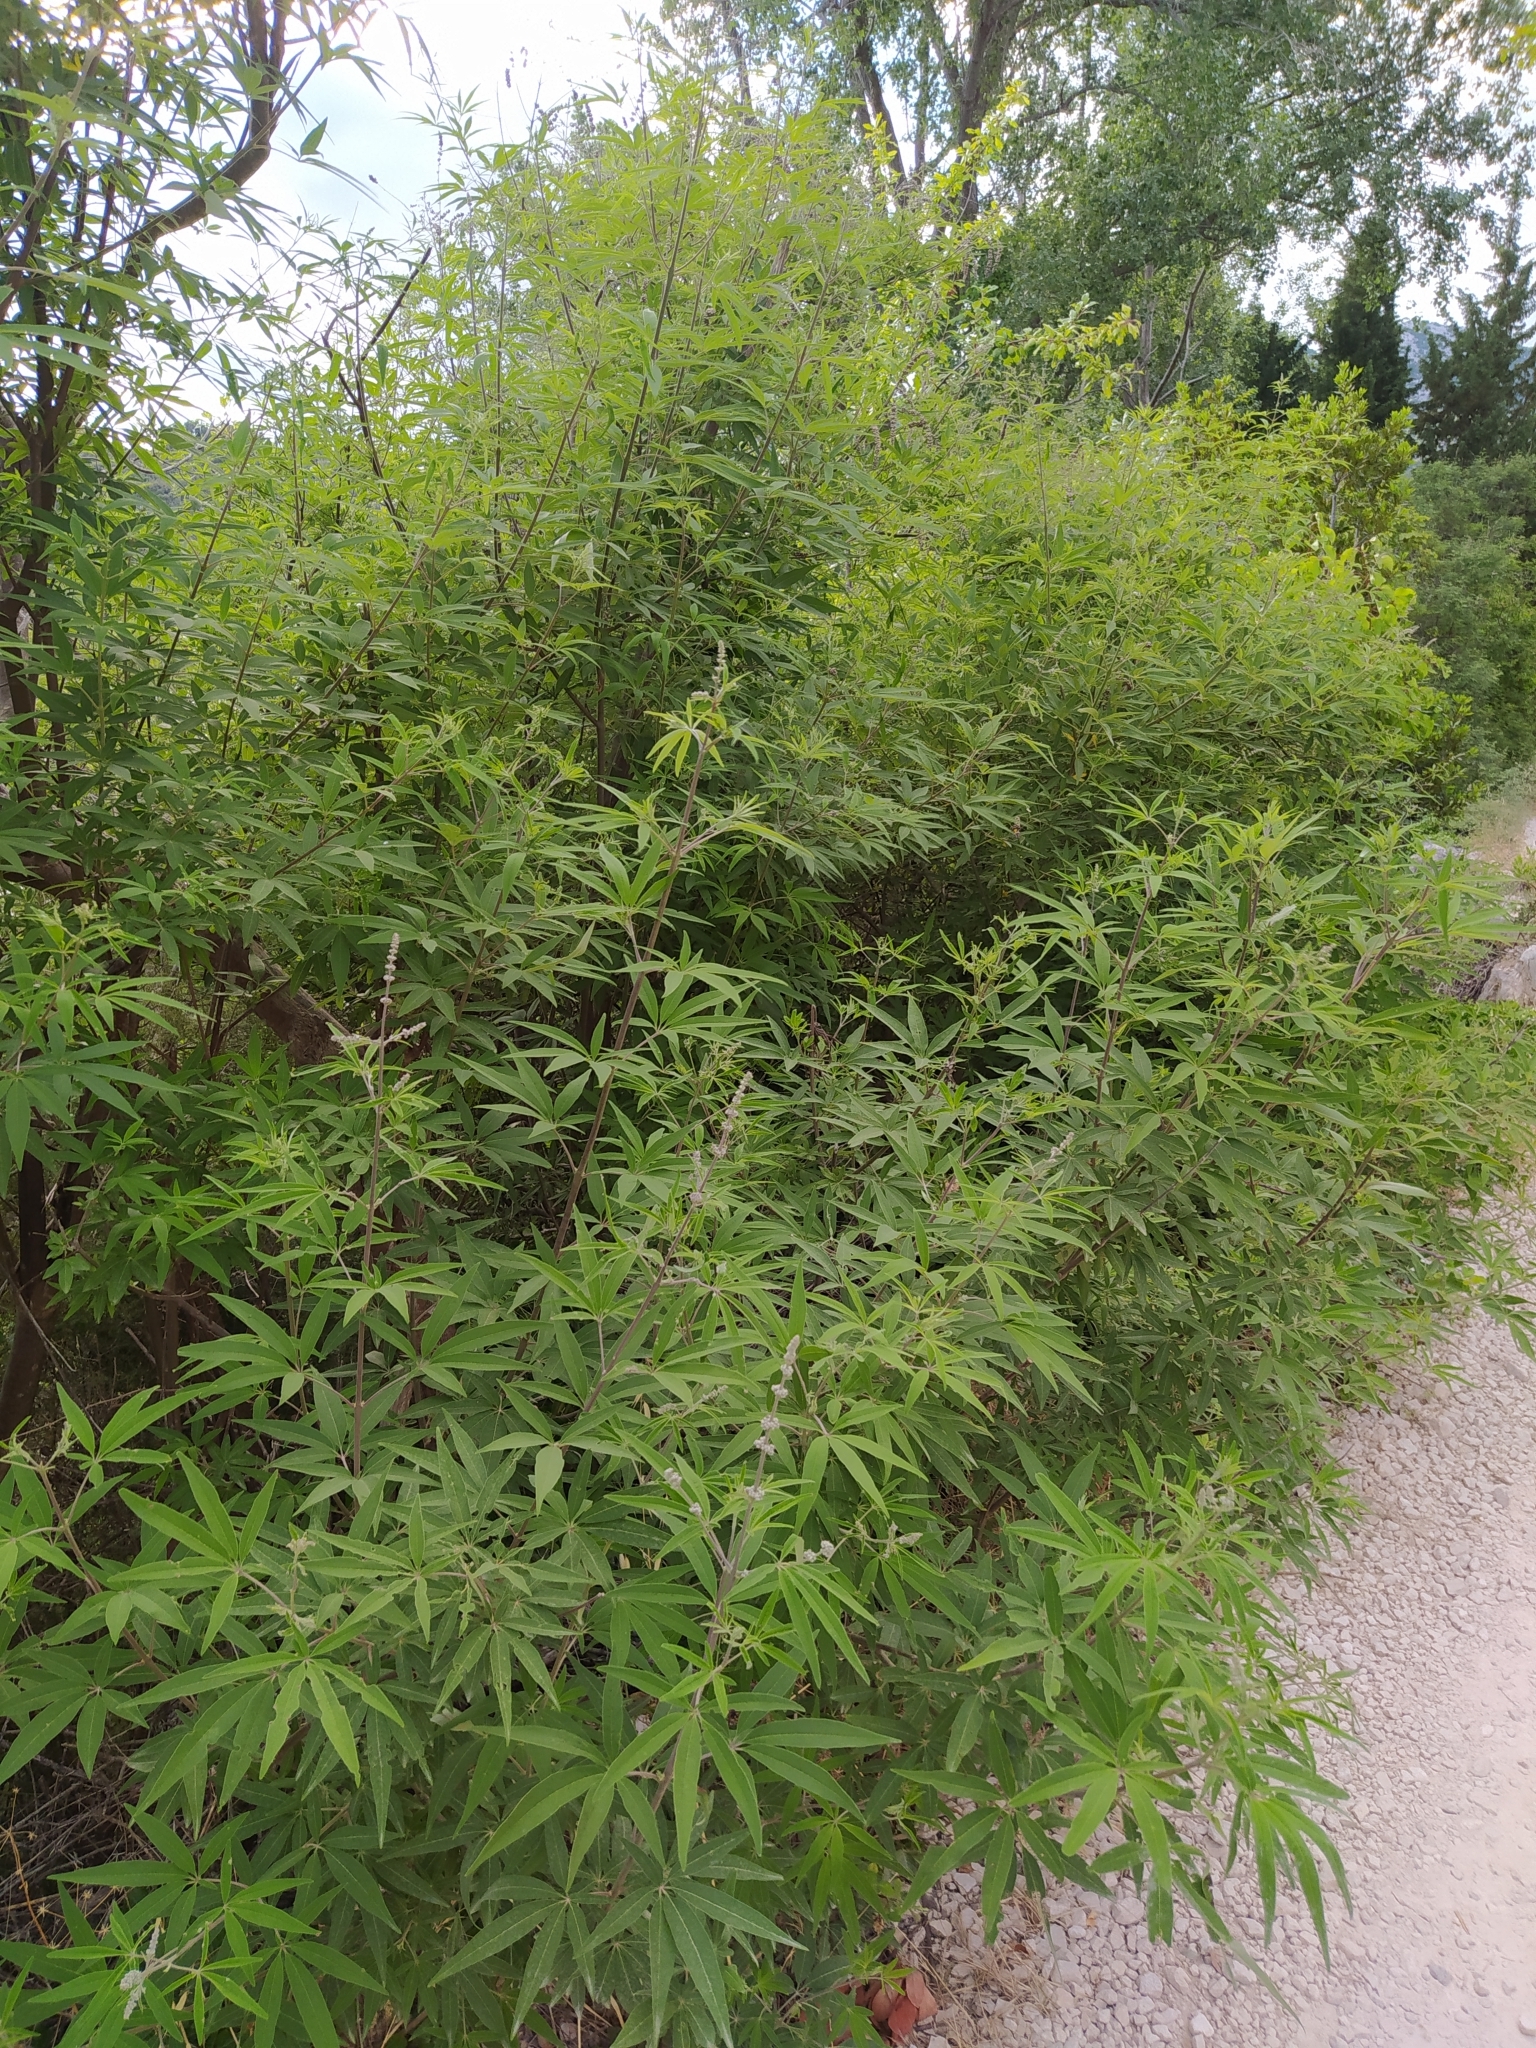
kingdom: Plantae
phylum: Tracheophyta
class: Magnoliopsida
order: Lamiales
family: Lamiaceae
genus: Vitex
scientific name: Vitex agnus-castus
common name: Chasteberry
